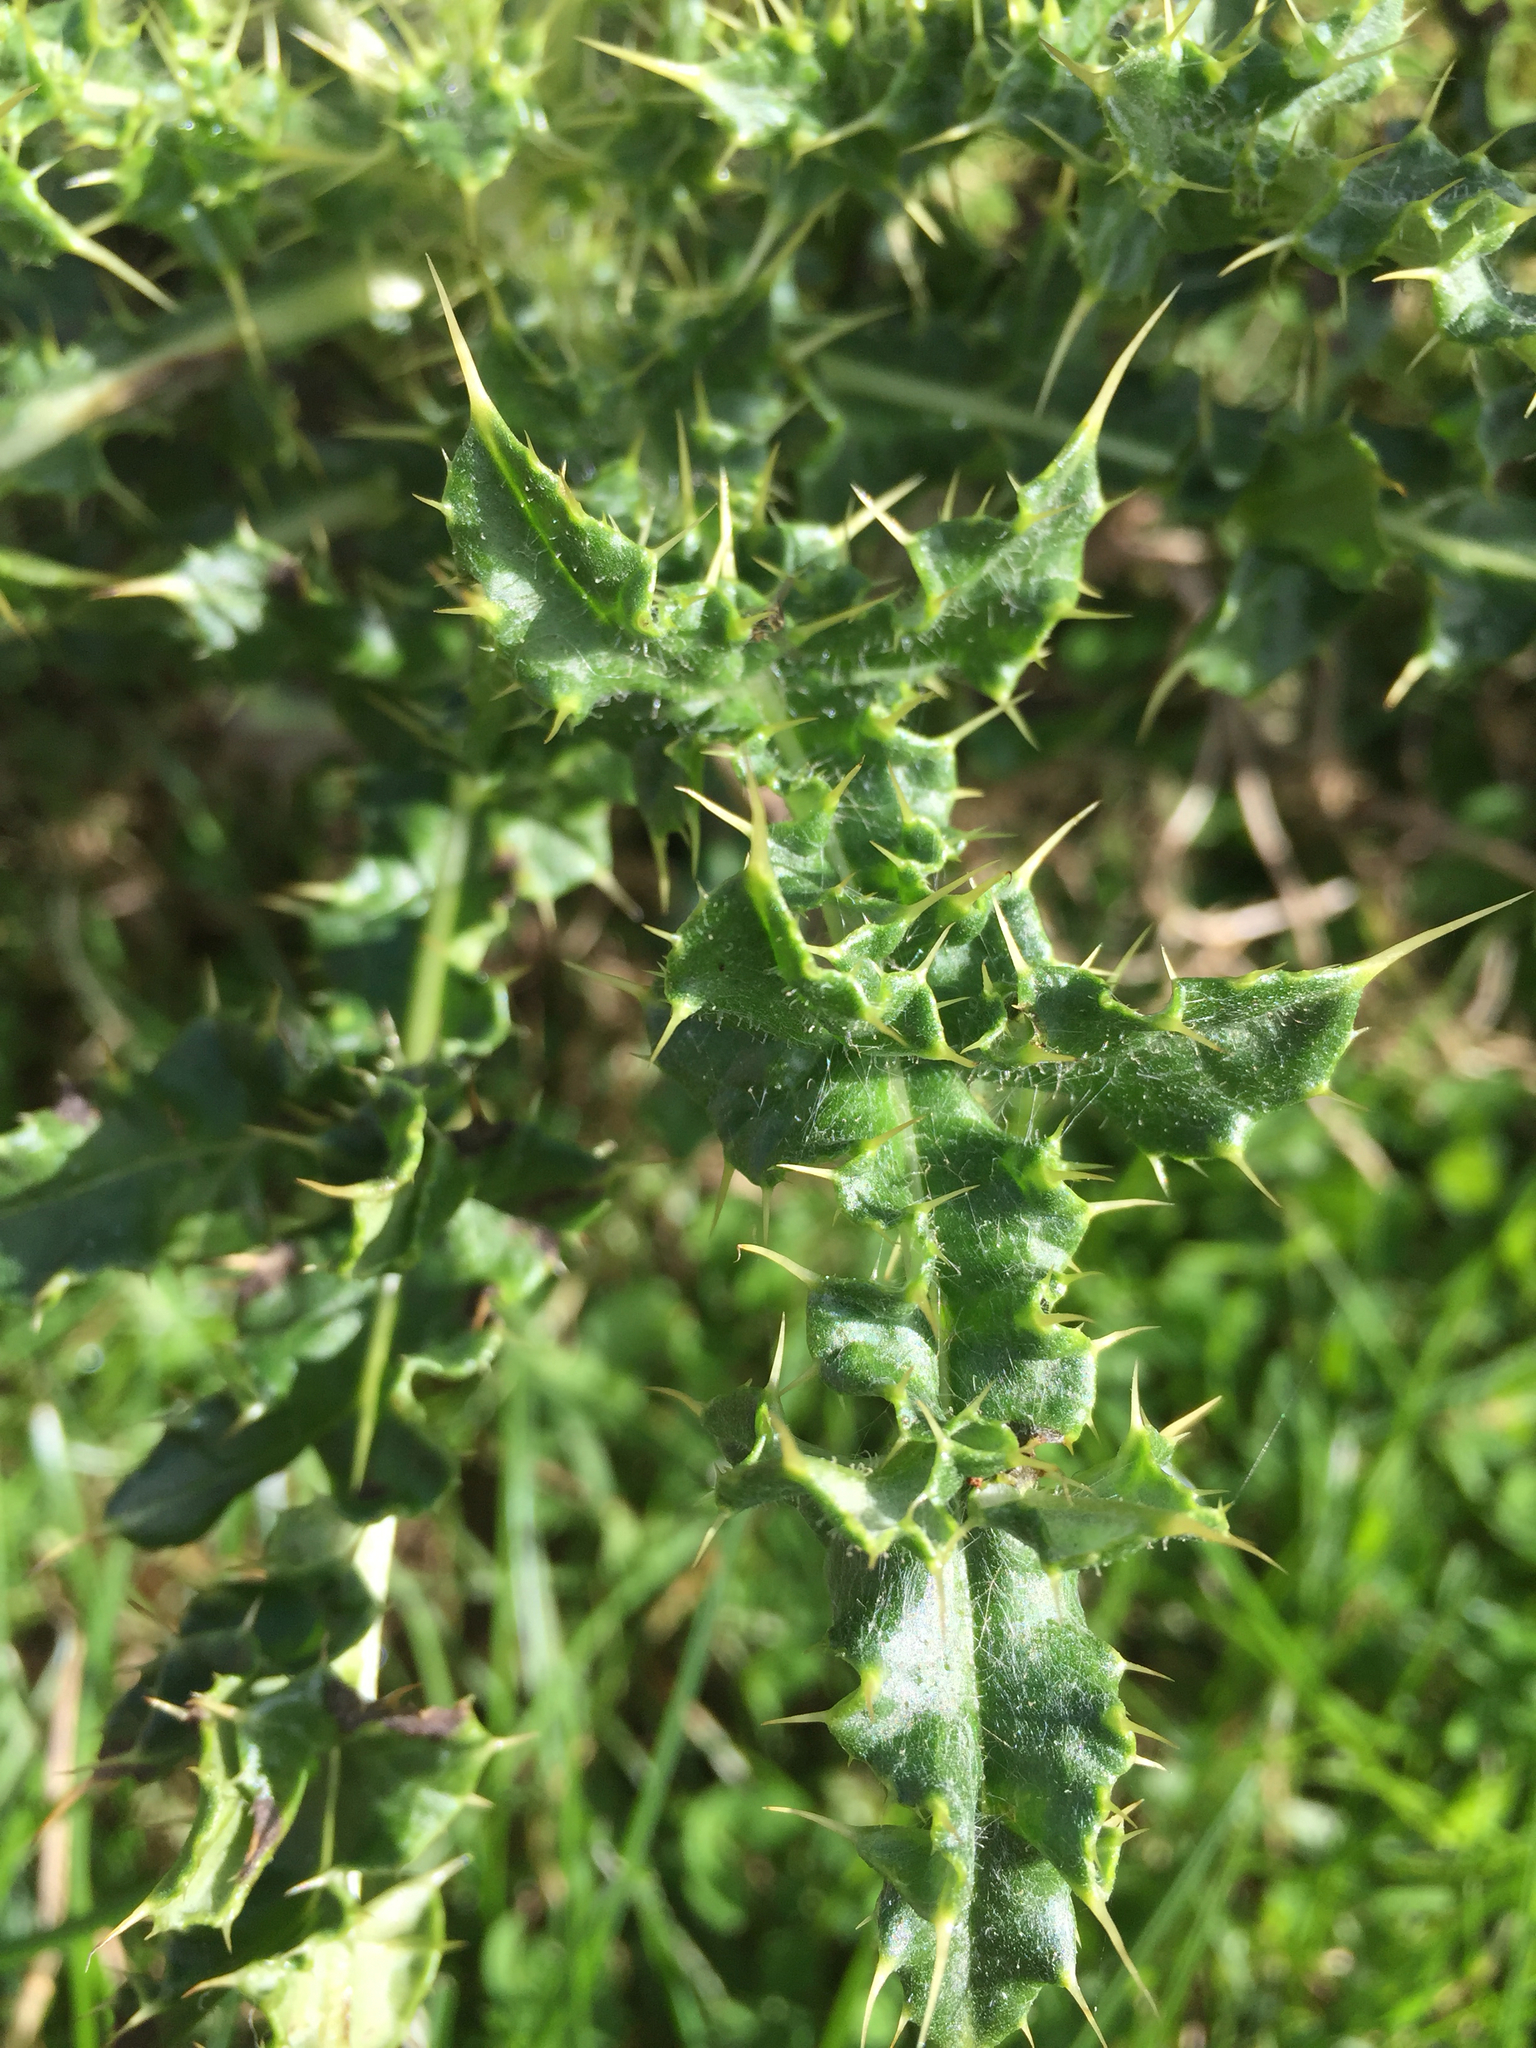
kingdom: Plantae
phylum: Tracheophyta
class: Magnoliopsida
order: Asterales
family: Asteraceae
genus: Cirsium
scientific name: Cirsium arvense
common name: Creeping thistle
